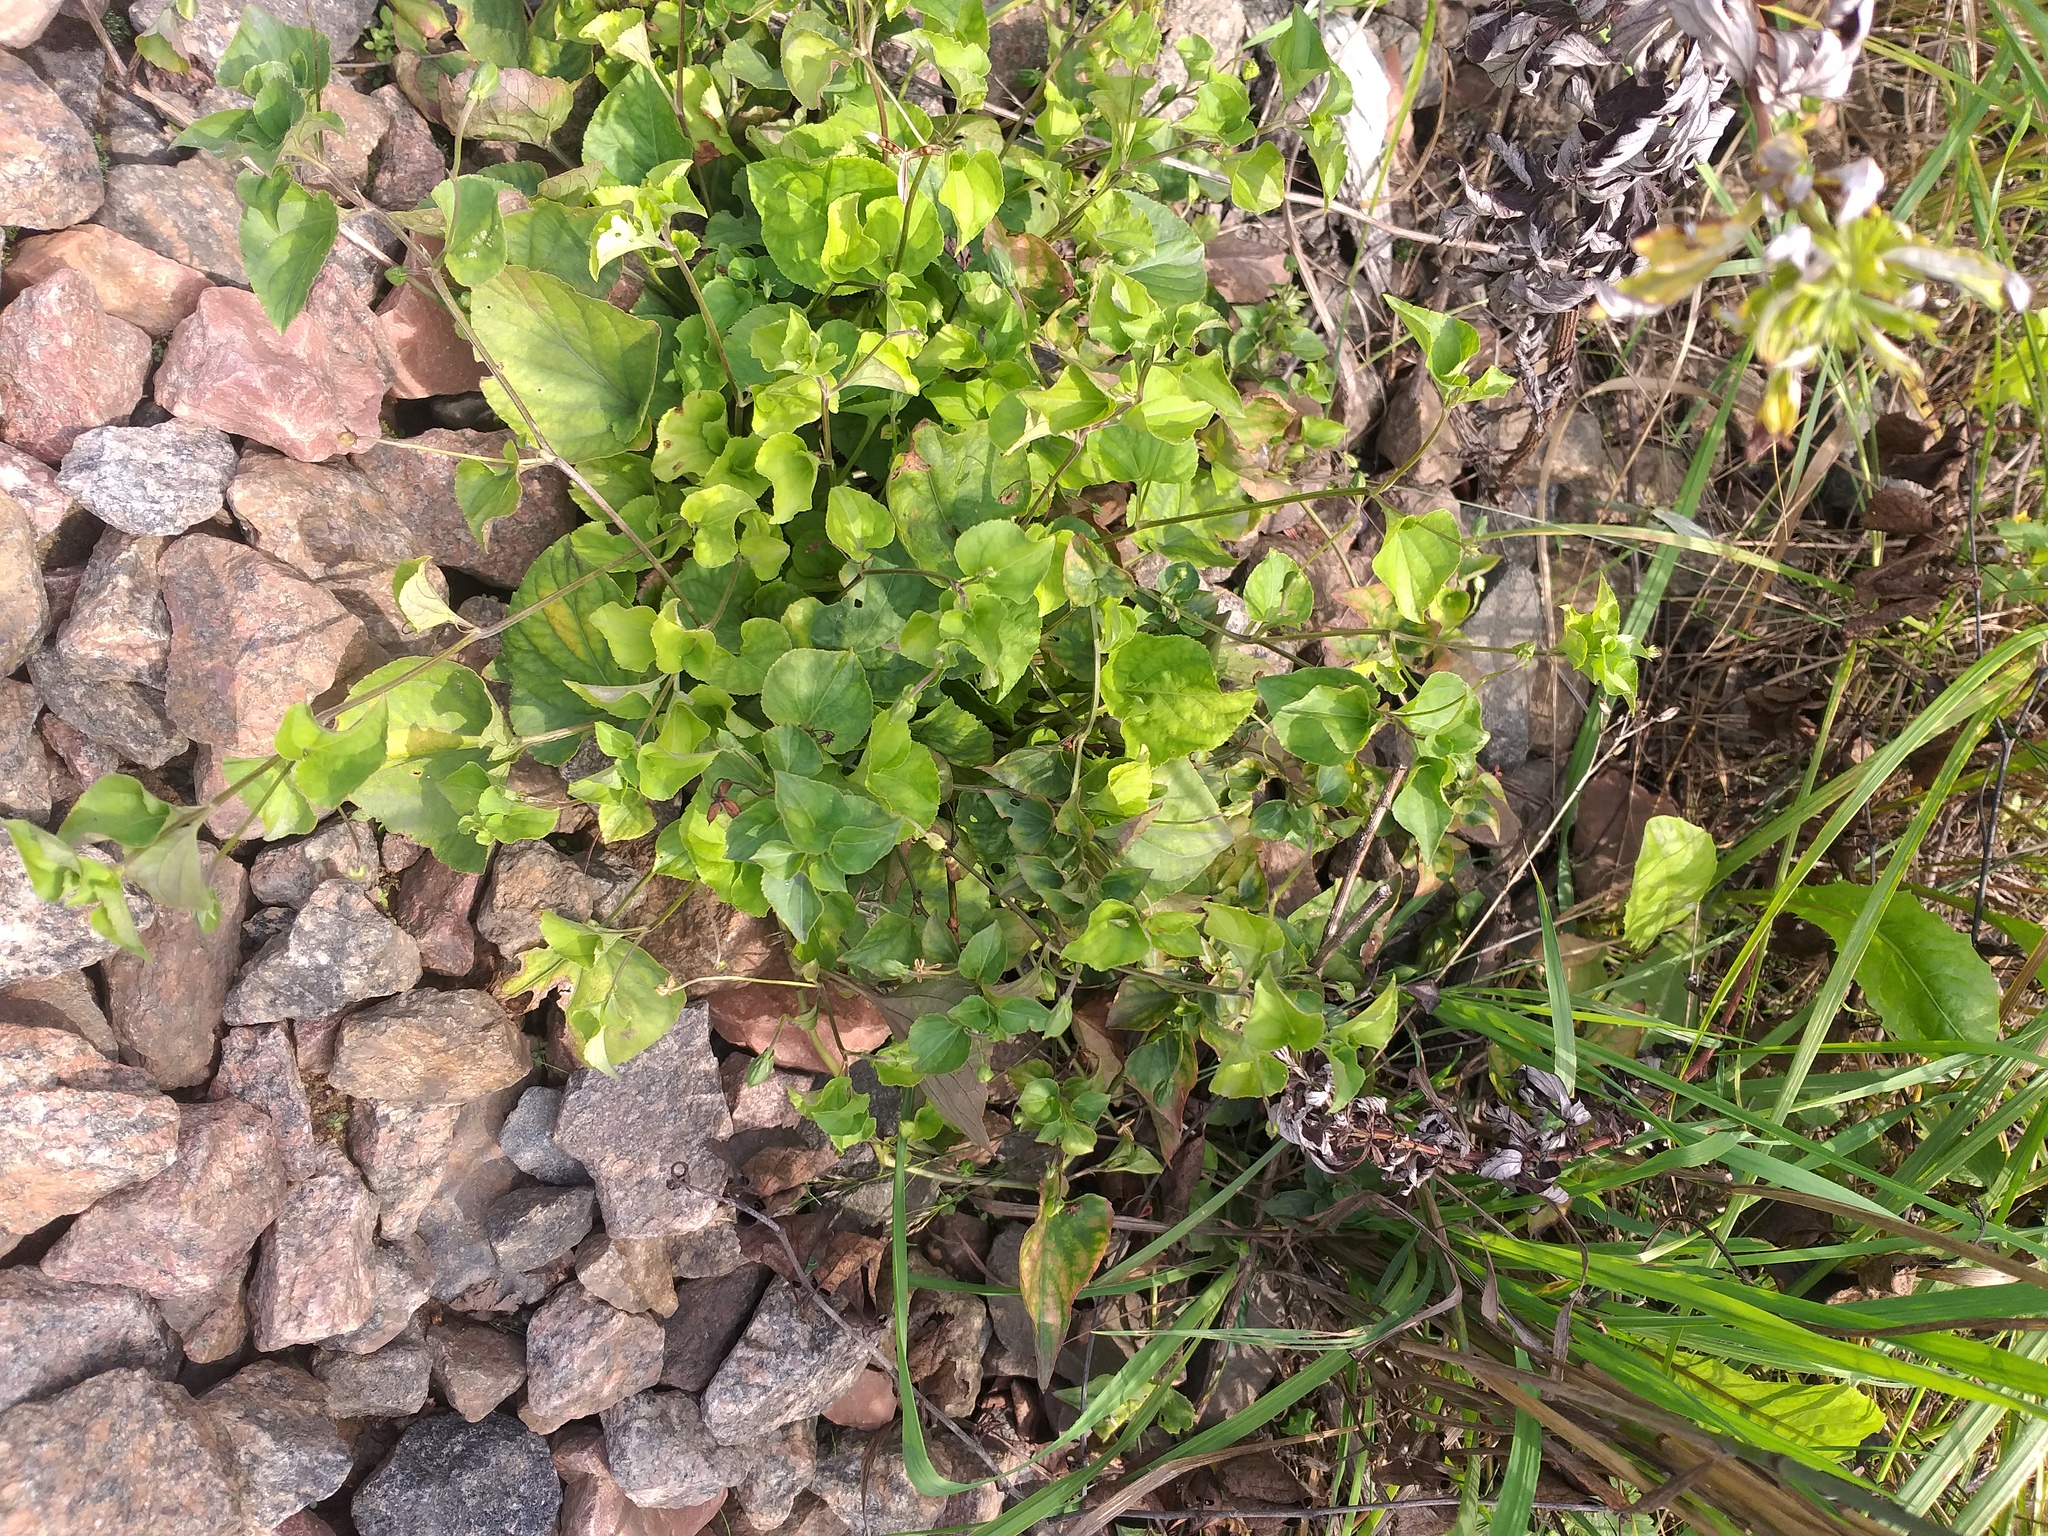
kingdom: Plantae
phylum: Tracheophyta
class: Magnoliopsida
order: Malpighiales
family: Violaceae
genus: Viola
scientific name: Viola rupestris
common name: Teesdale violet
